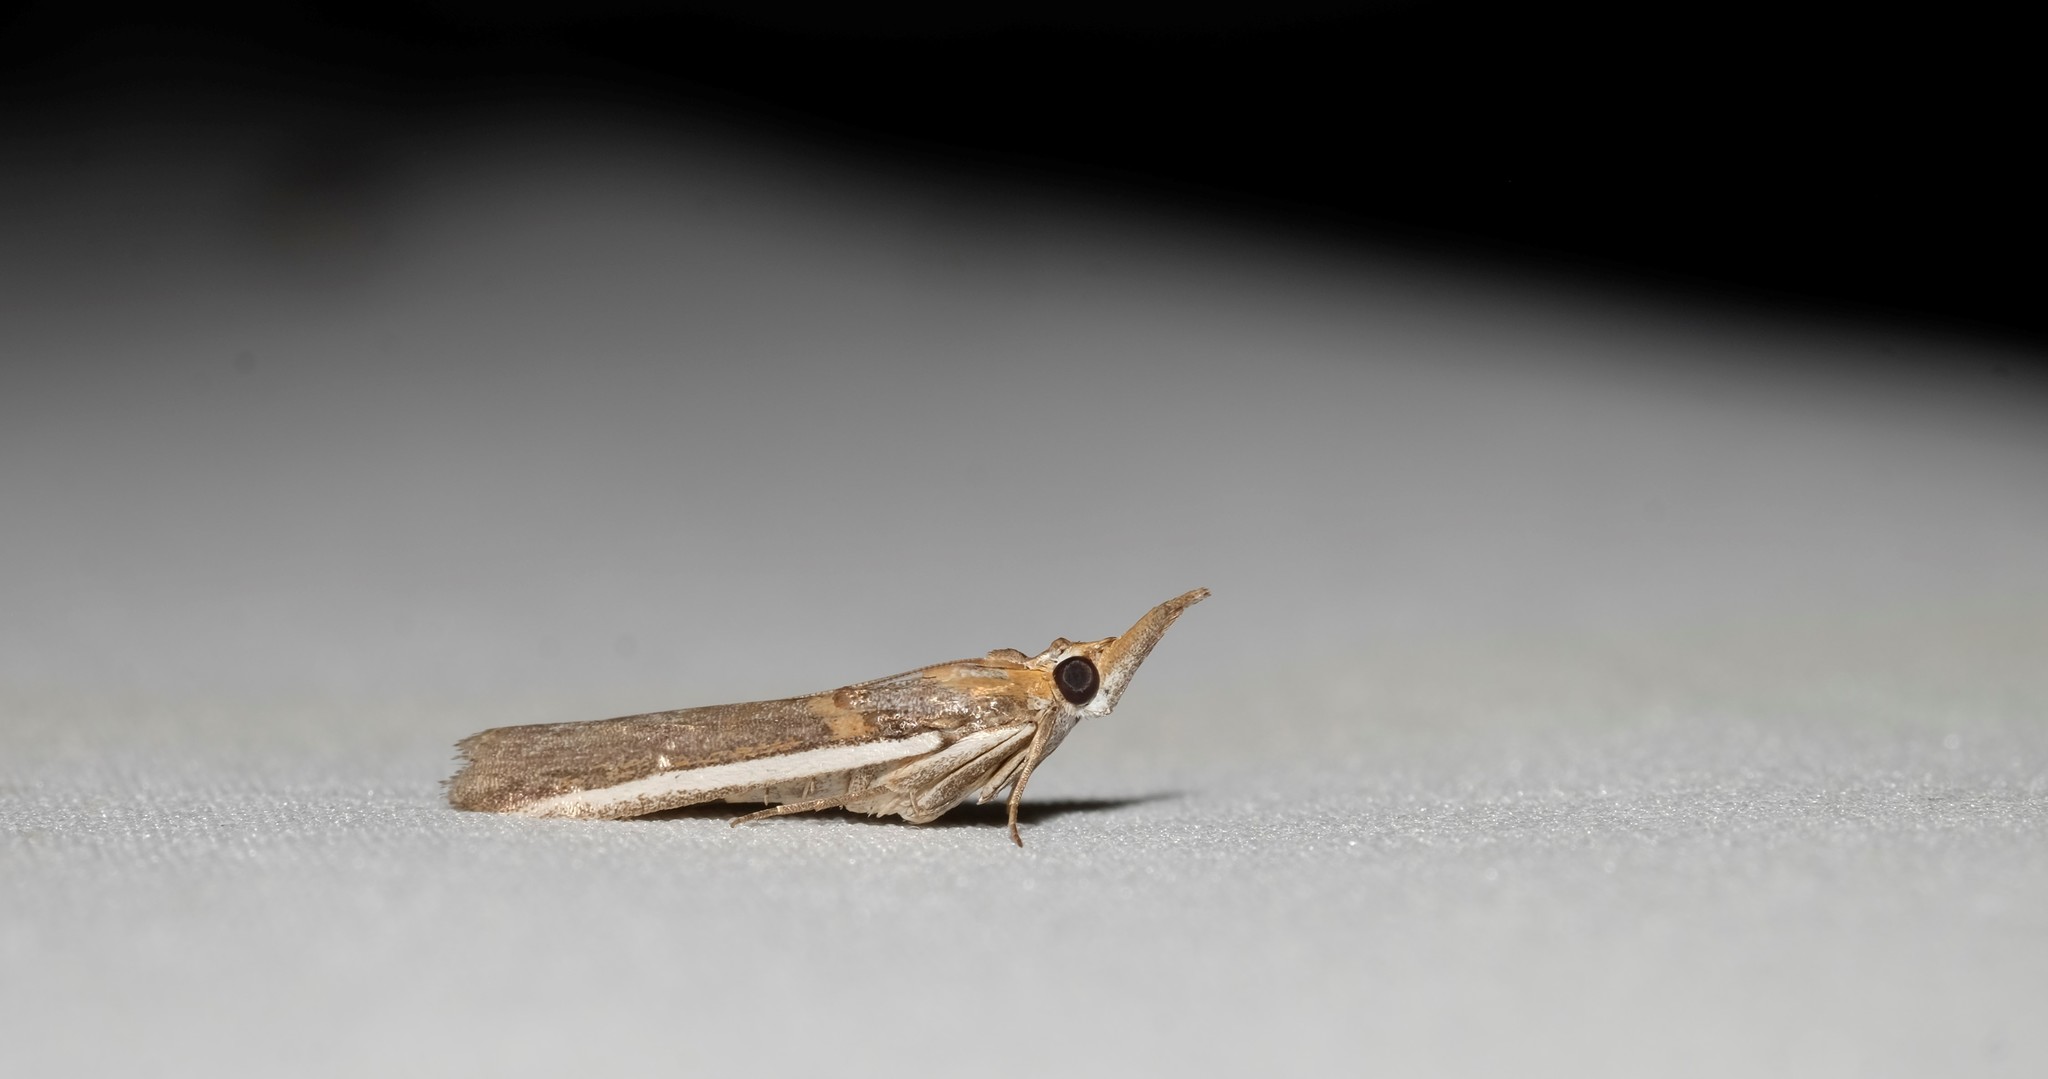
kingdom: Animalia
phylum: Arthropoda
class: Insecta
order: Lepidoptera
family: Pyralidae
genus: Etiella
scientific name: Etiella behrii
